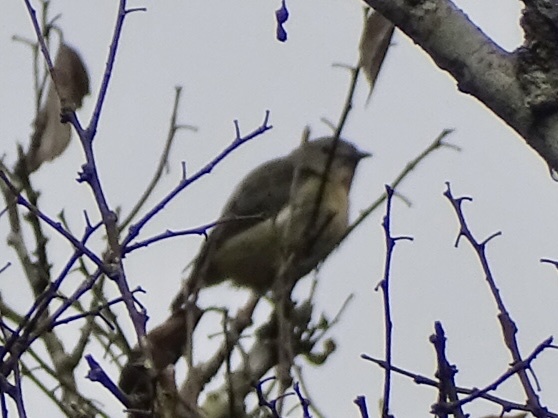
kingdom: Animalia
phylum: Chordata
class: Aves
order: Passeriformes
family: Dicaeidae
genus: Dicaeum
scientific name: Dicaeum ignipectus
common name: Fire-breasted flowerpecker
